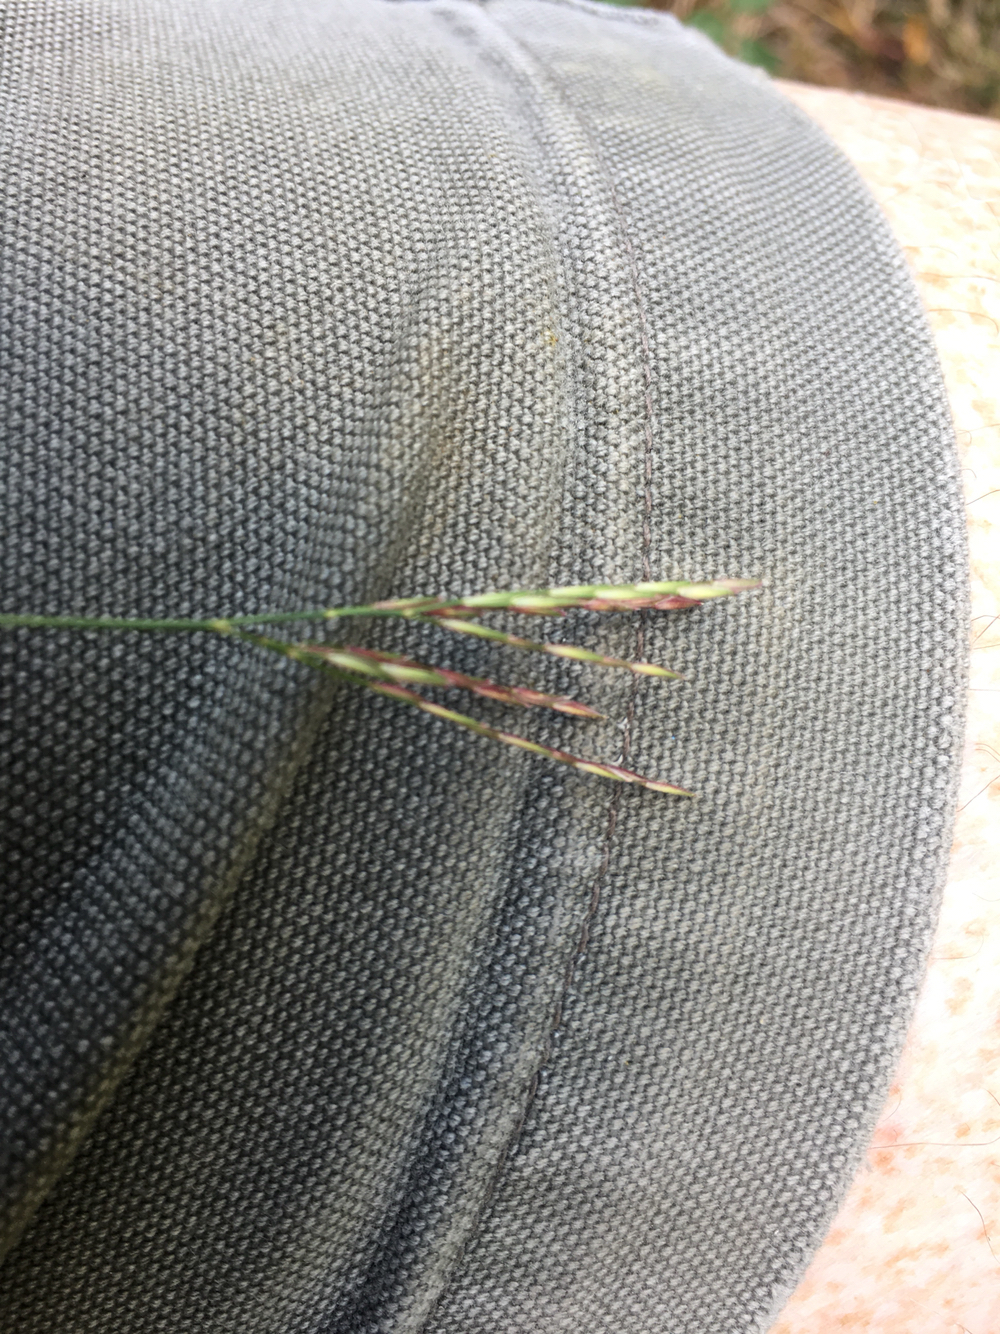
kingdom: Plantae
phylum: Tracheophyta
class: Liliopsida
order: Poales
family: Poaceae
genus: Arthraxon
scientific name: Arthraxon hispidus
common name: Small carpgrass
